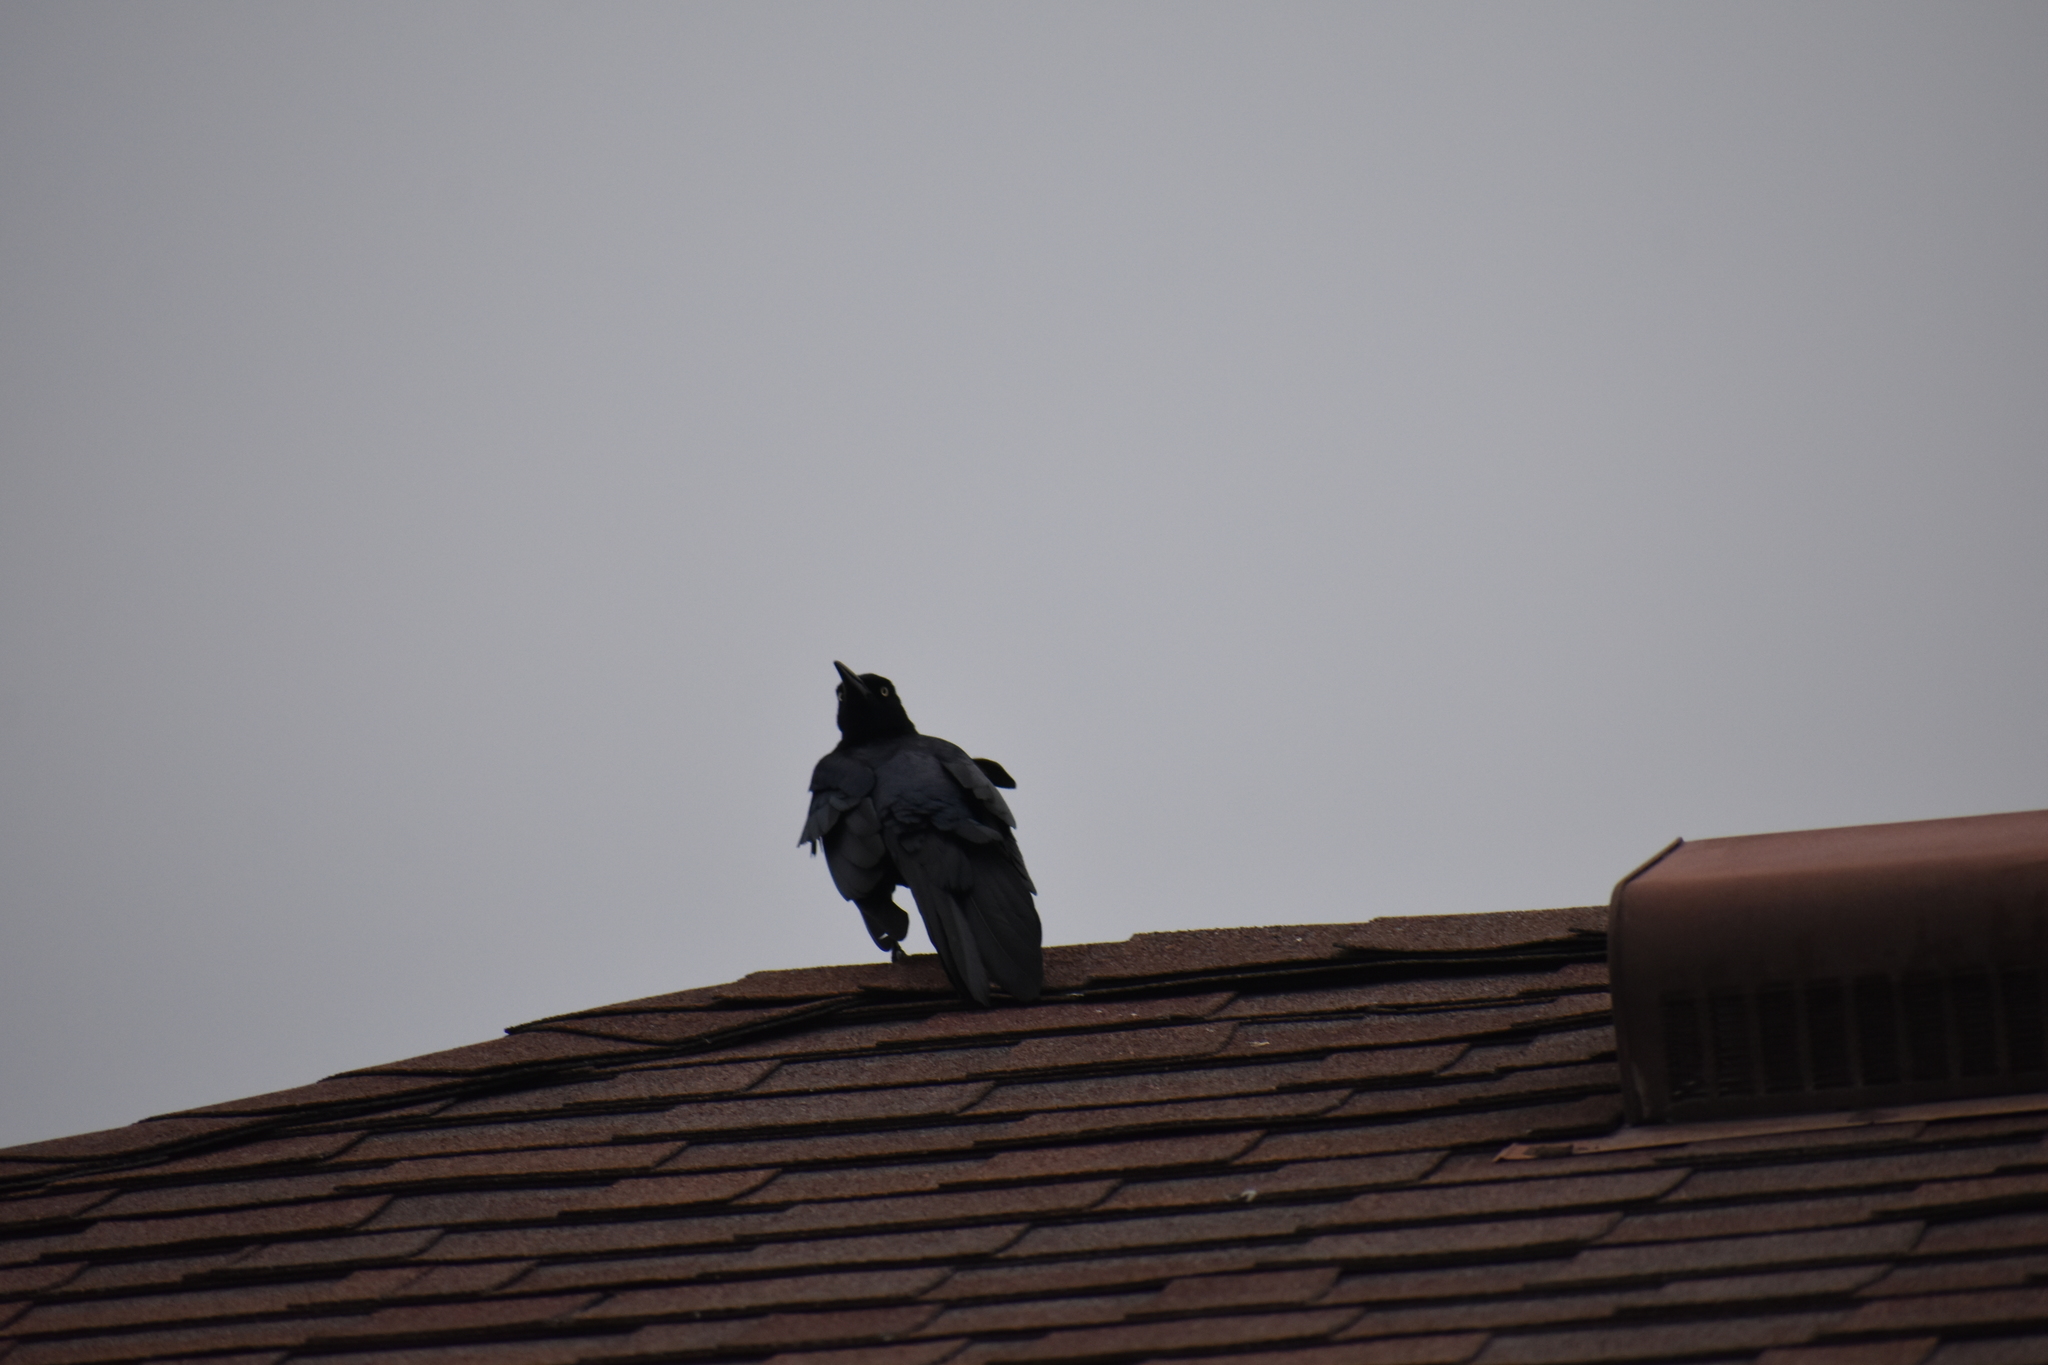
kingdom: Animalia
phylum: Chordata
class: Aves
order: Passeriformes
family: Icteridae
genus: Quiscalus
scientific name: Quiscalus mexicanus
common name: Great-tailed grackle
